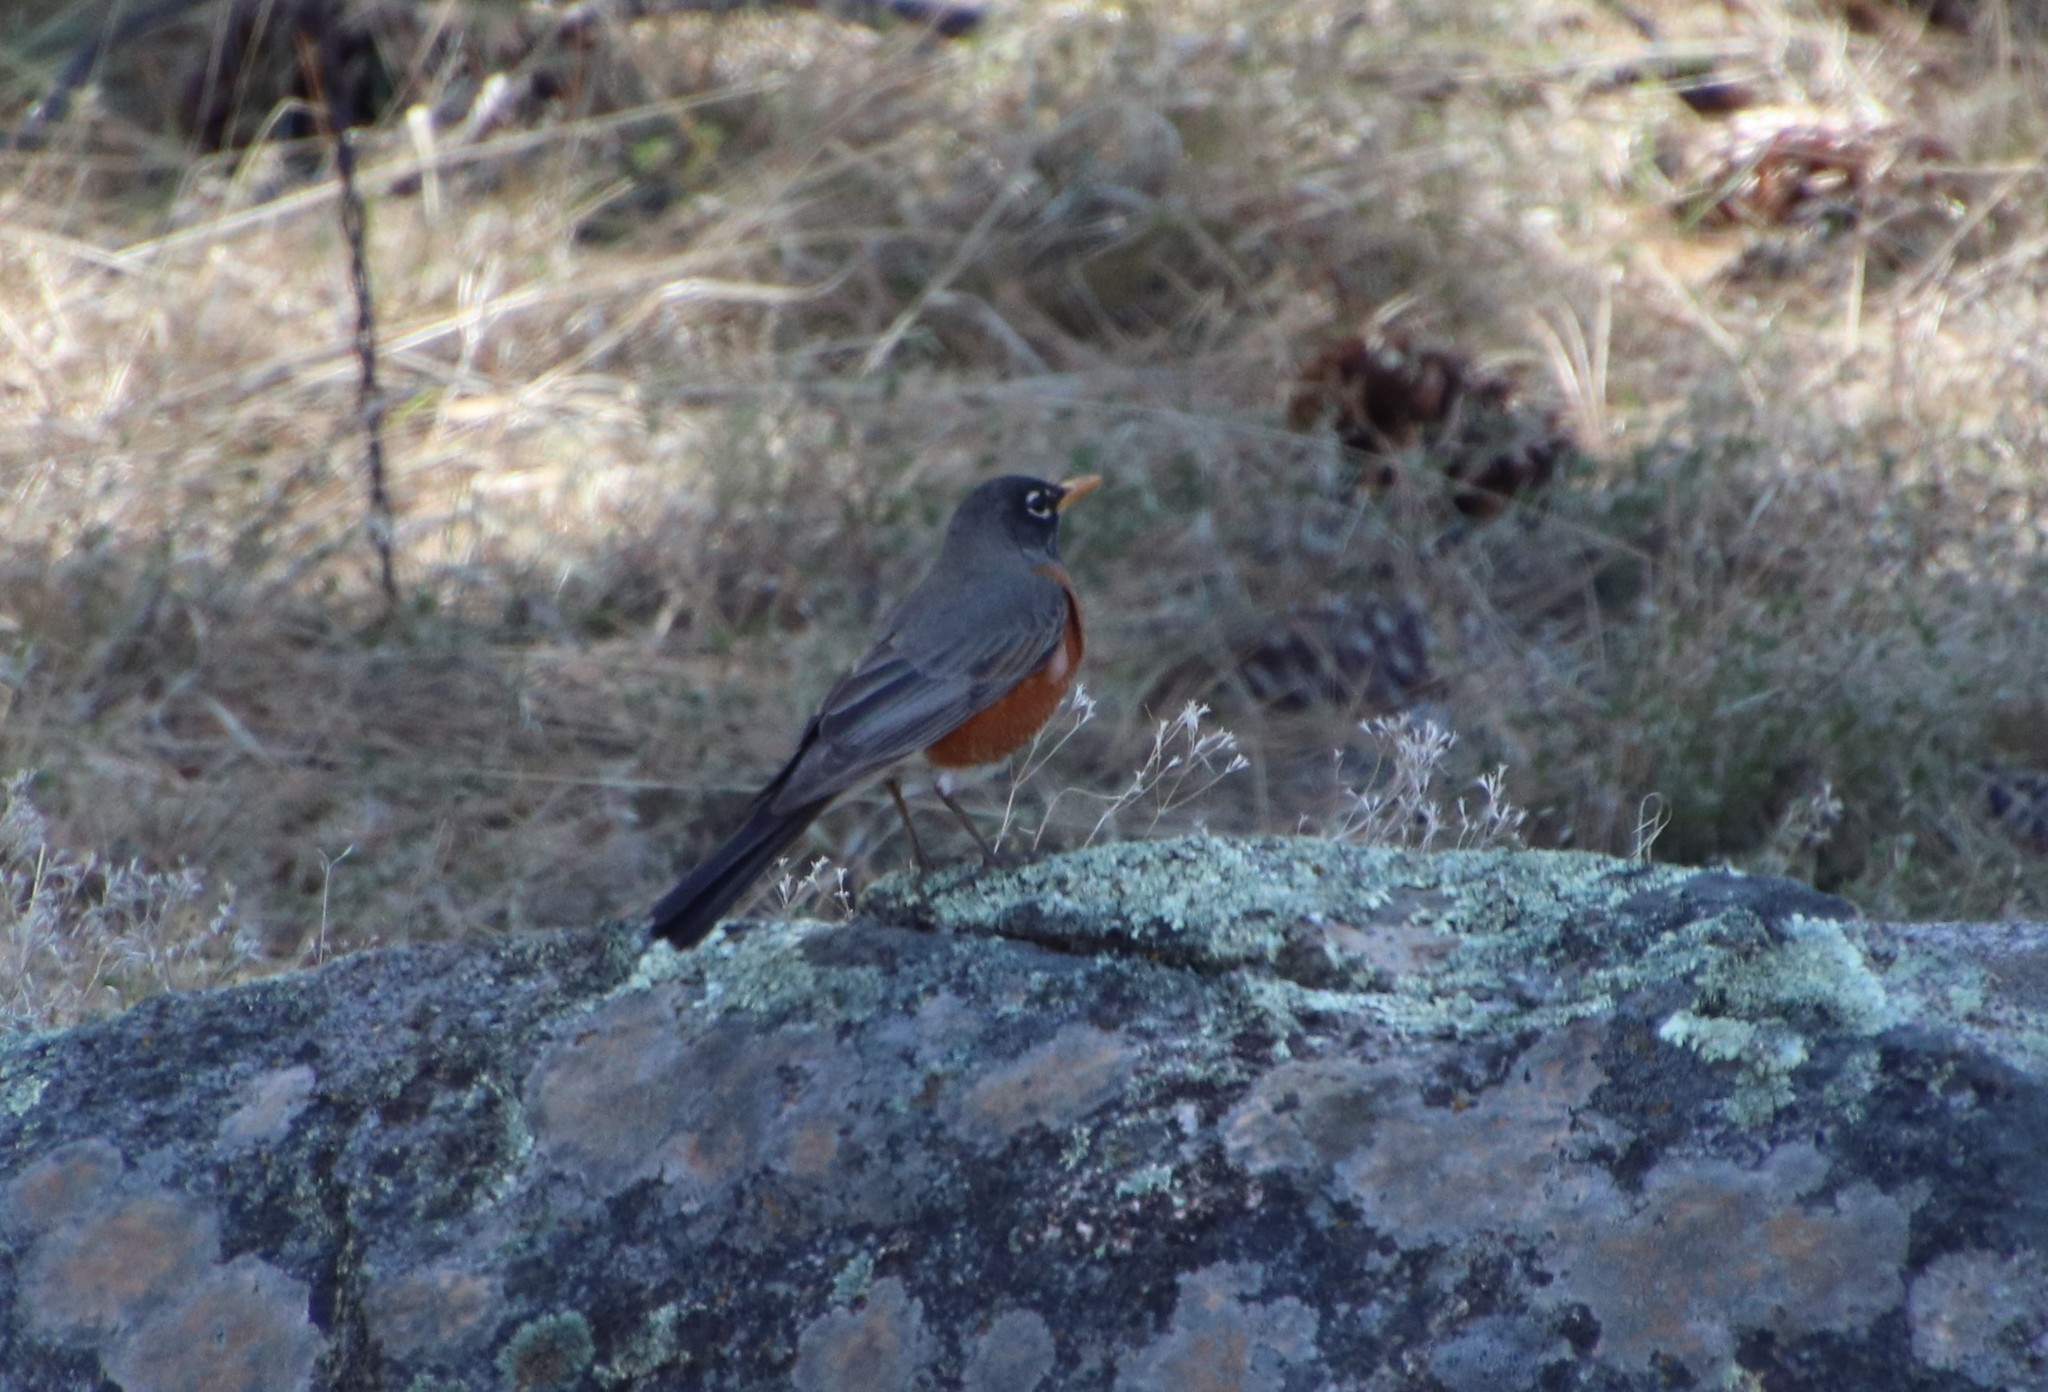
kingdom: Animalia
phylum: Chordata
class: Aves
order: Passeriformes
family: Turdidae
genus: Turdus
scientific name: Turdus migratorius
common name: American robin
